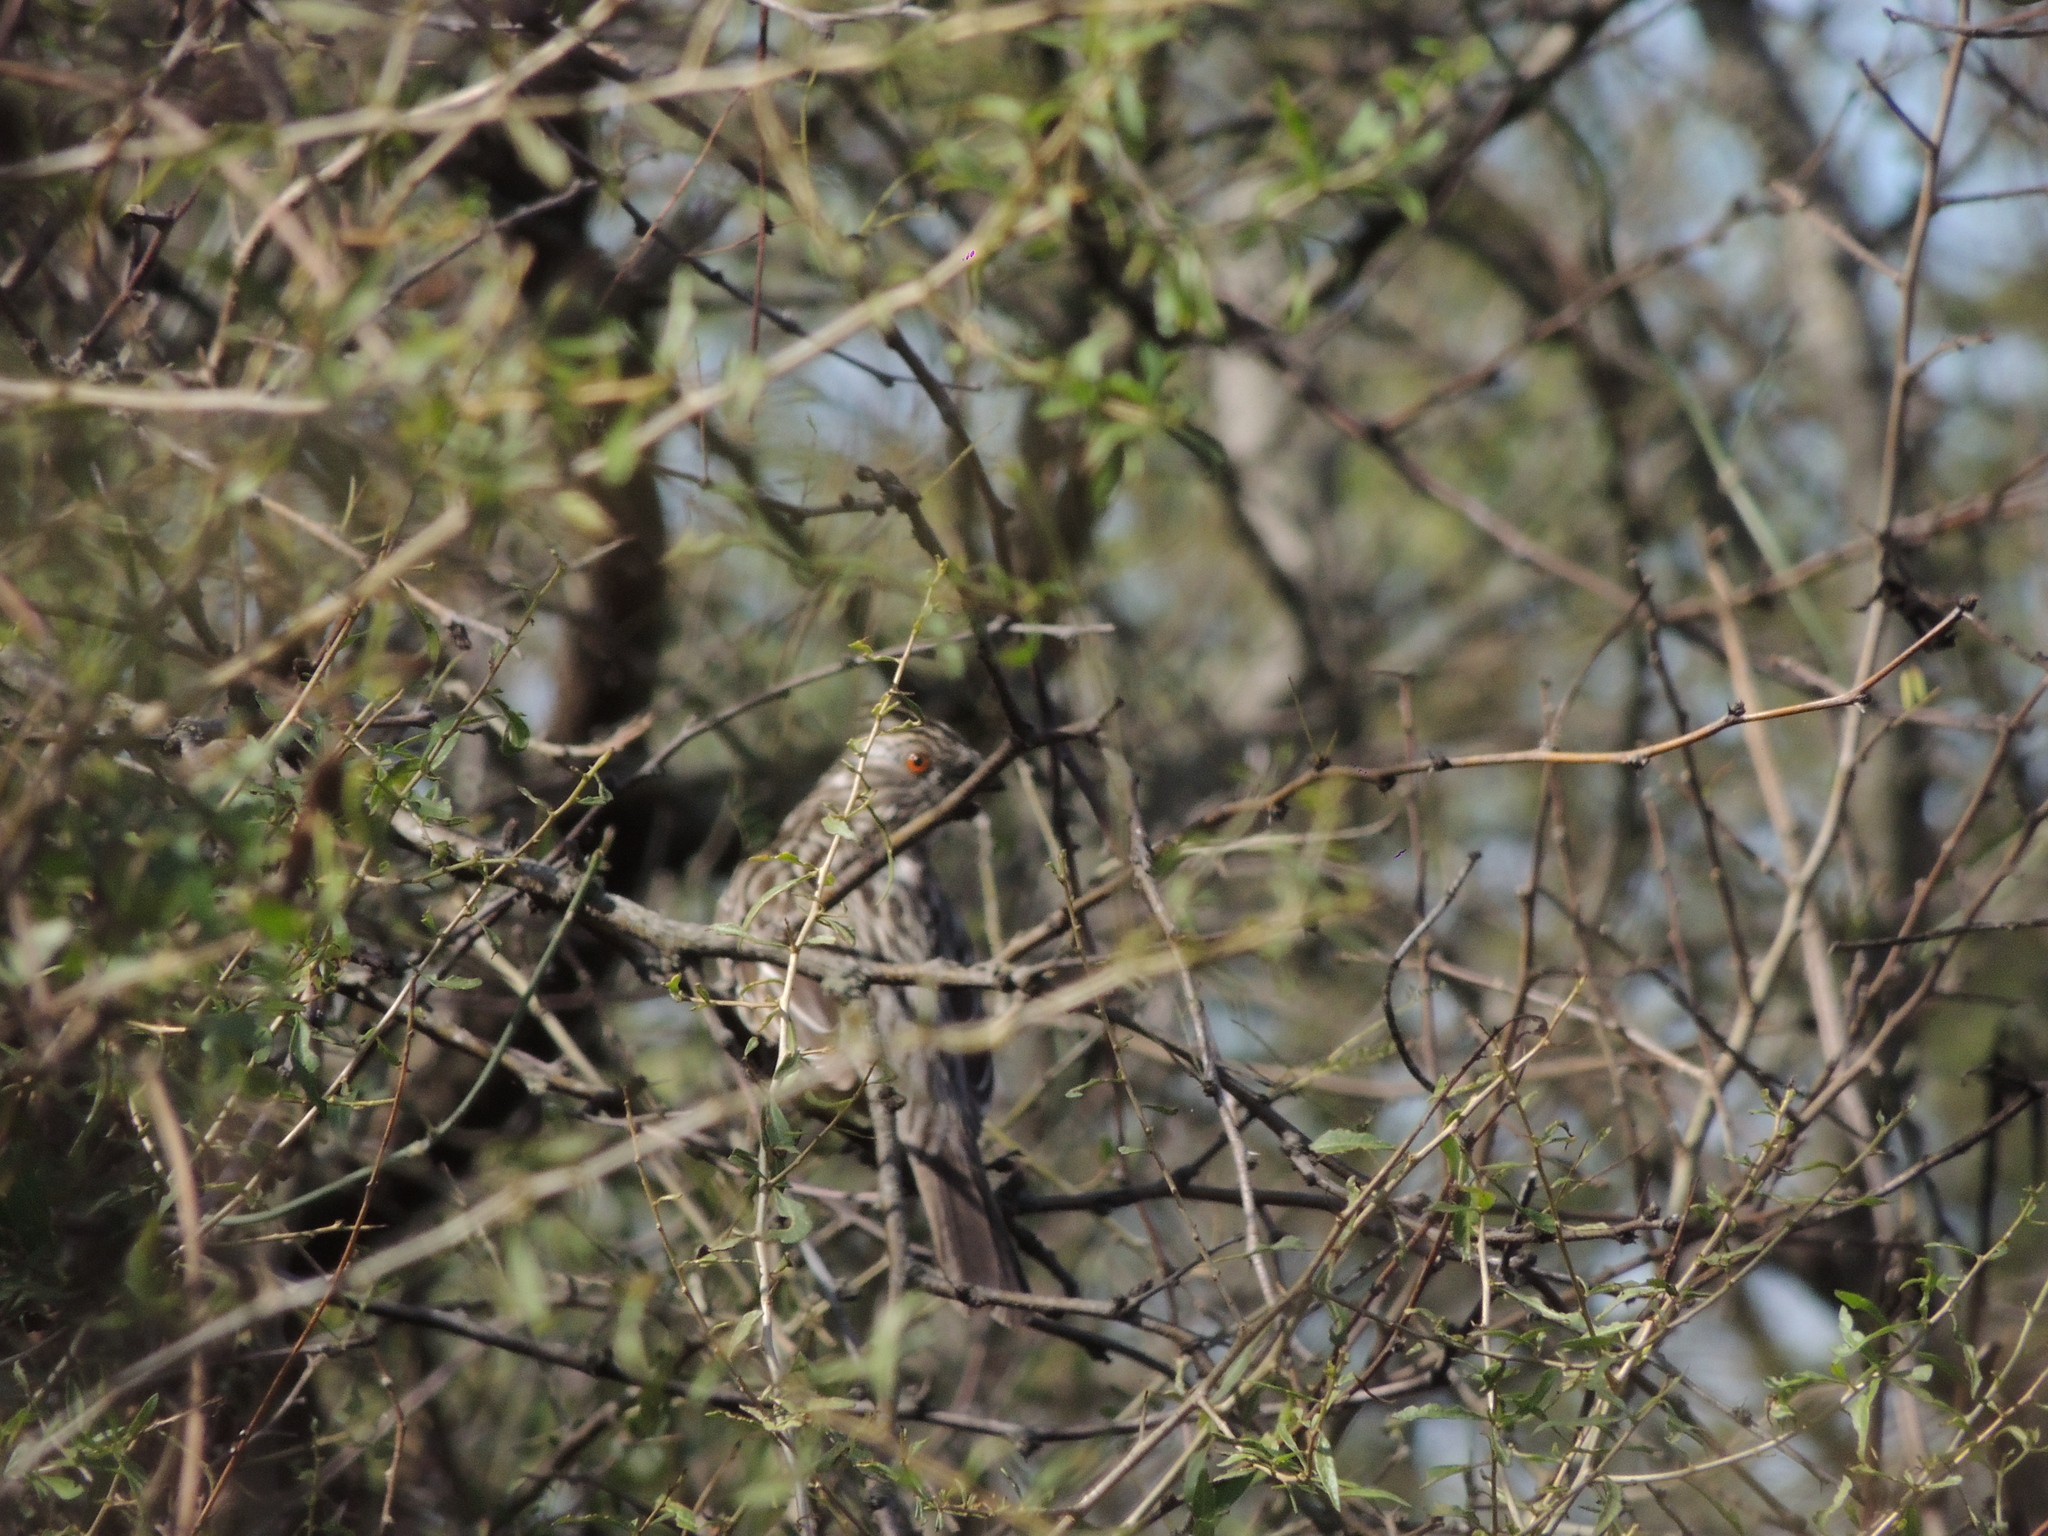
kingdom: Animalia
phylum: Chordata
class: Aves
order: Passeriformes
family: Cotingidae
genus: Phytotoma
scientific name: Phytotoma rutila
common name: White-tipped plantcutter
